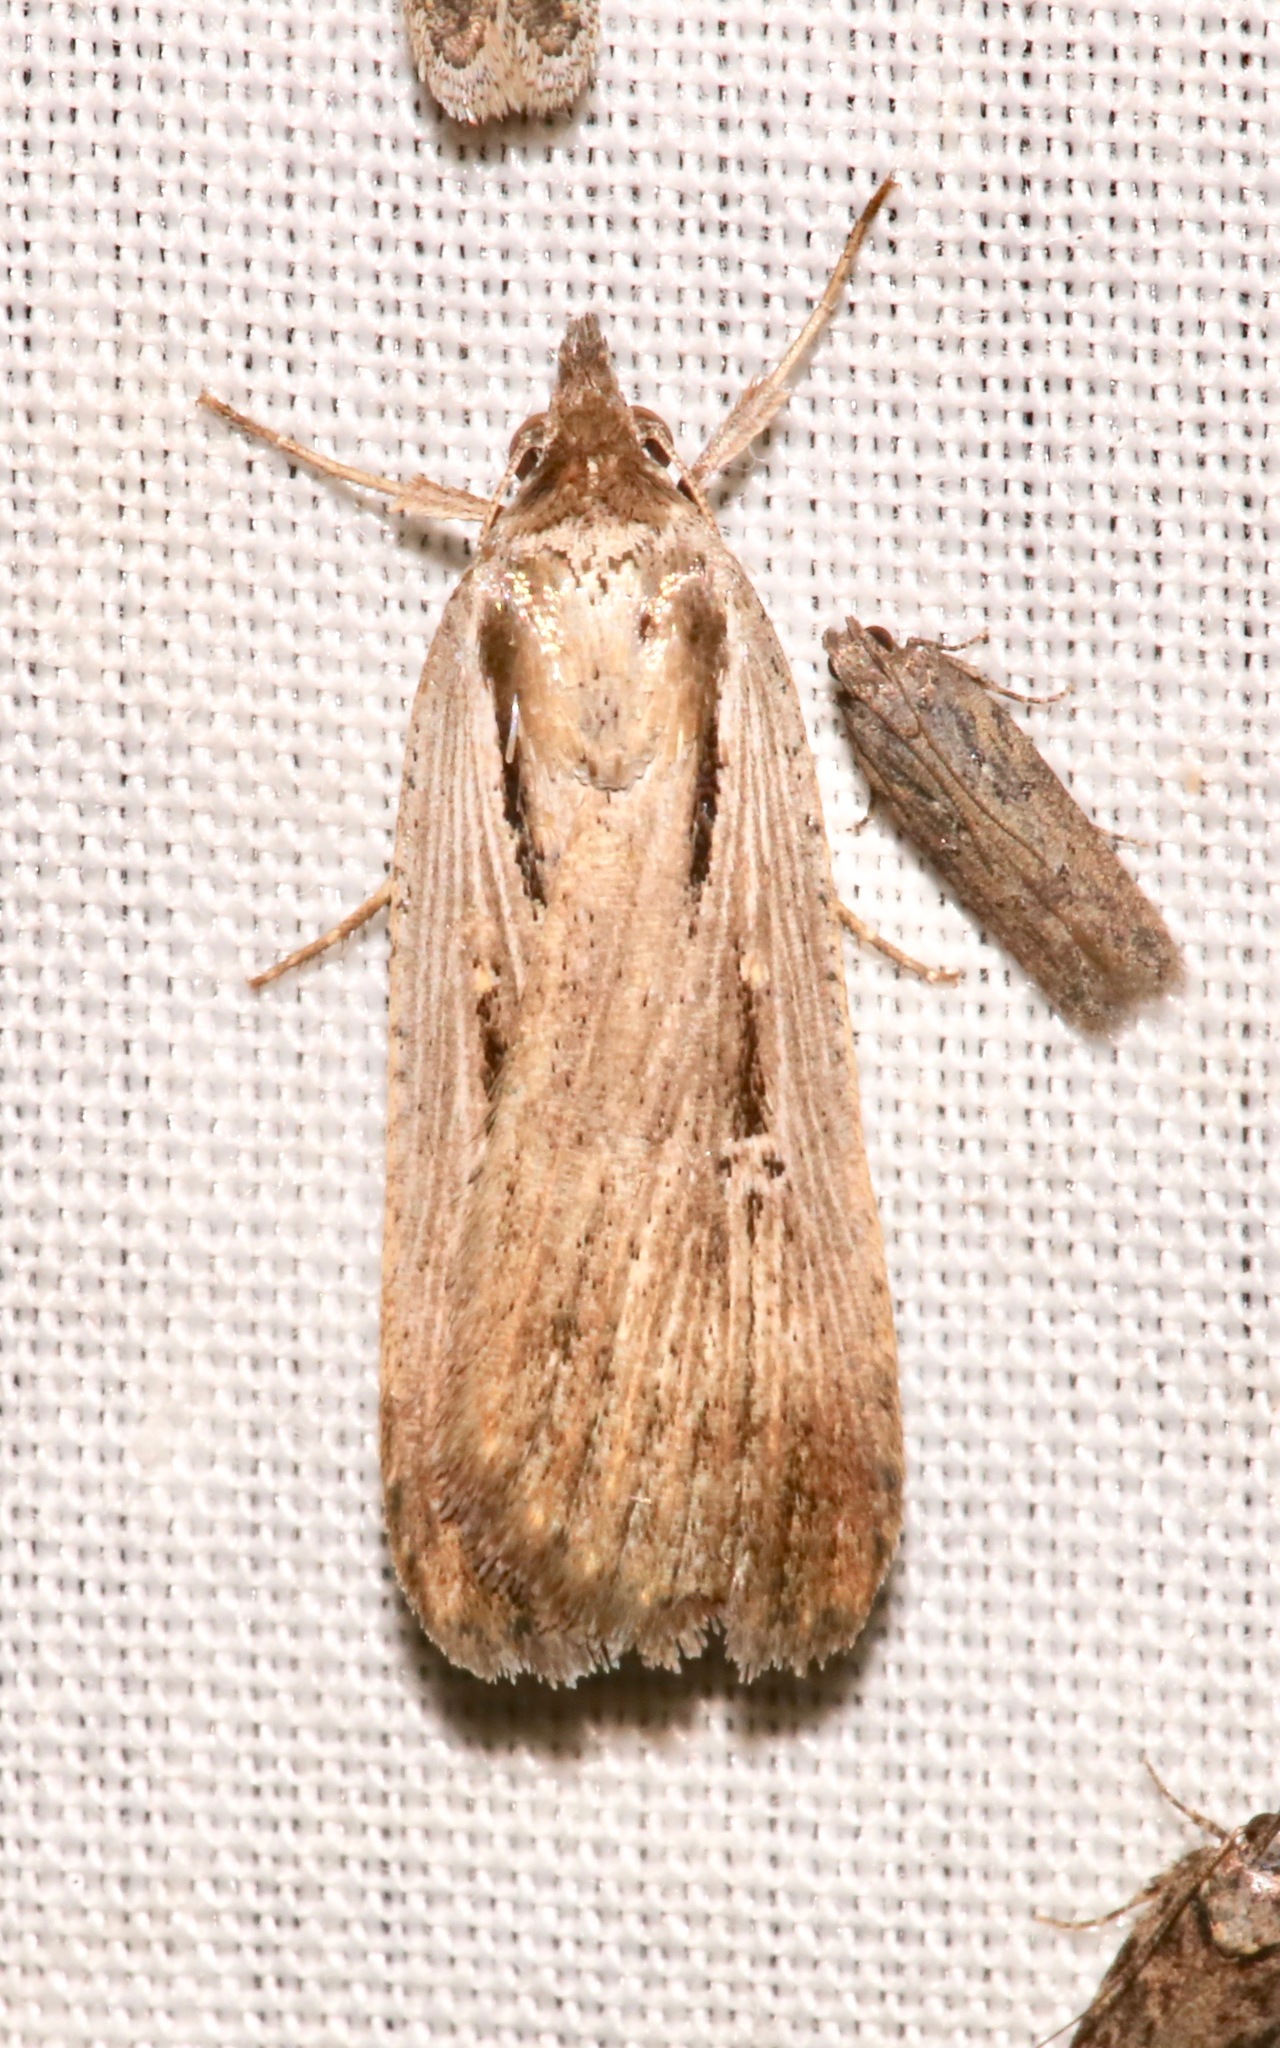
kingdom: Animalia
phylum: Arthropoda
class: Insecta
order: Lepidoptera
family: Noctuidae
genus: Tathorhynchus
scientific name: Tathorhynchus exsiccata
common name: Levant blackneck moth
